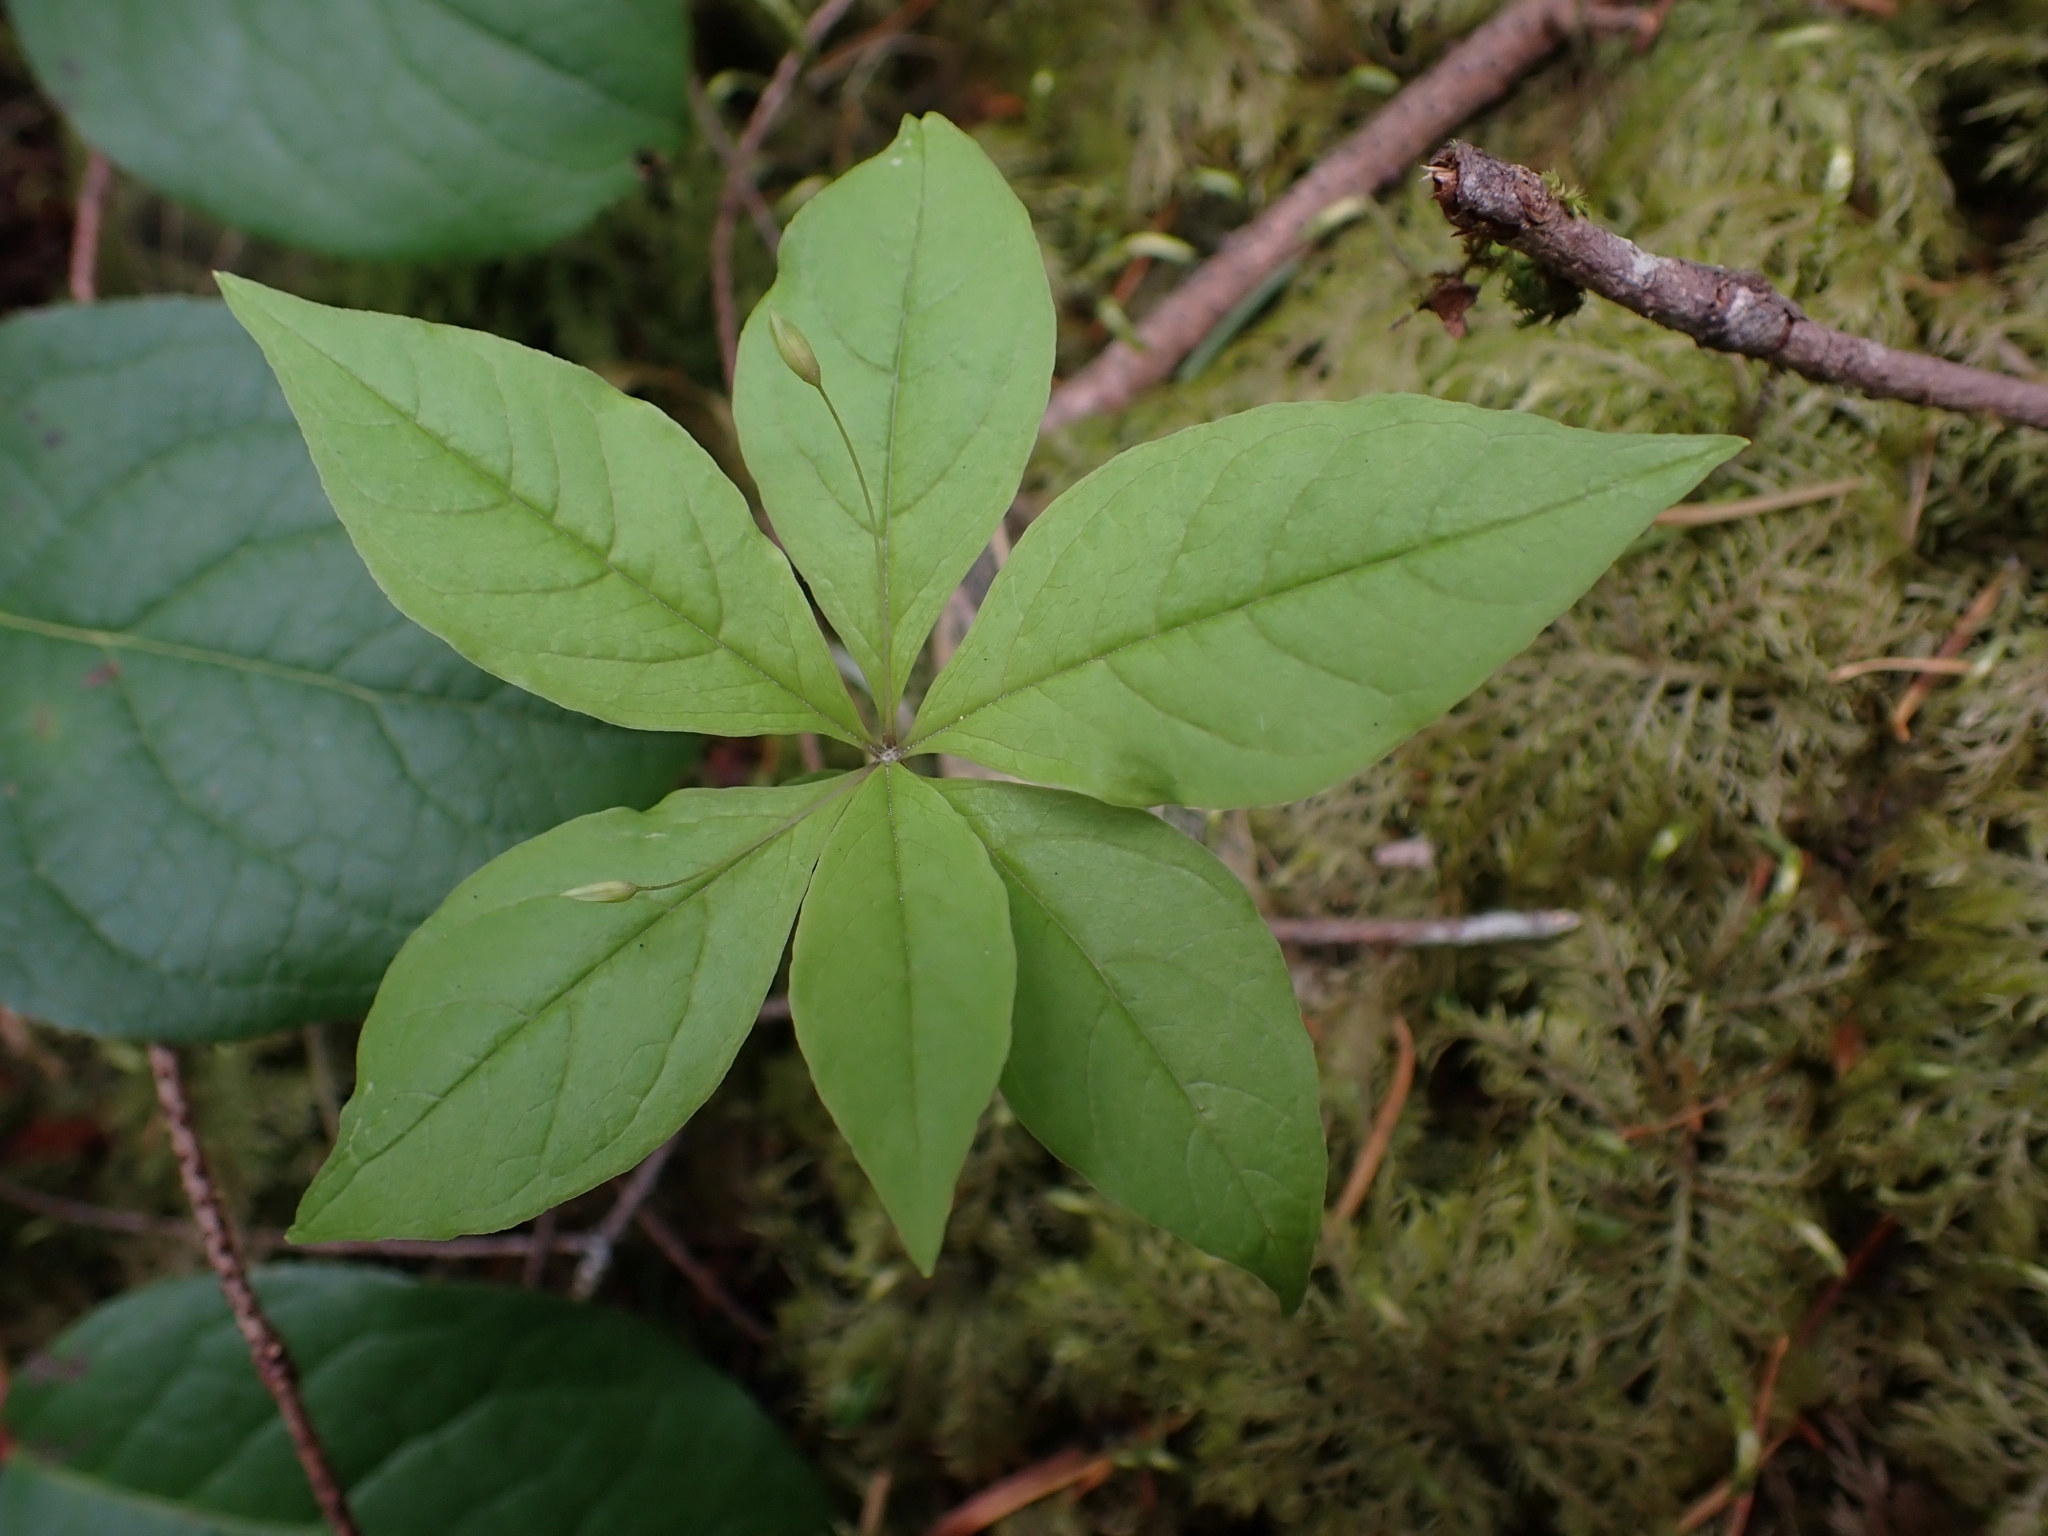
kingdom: Plantae
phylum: Tracheophyta
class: Magnoliopsida
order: Ericales
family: Primulaceae
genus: Lysimachia
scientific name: Lysimachia latifolia
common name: Pacific starflower
